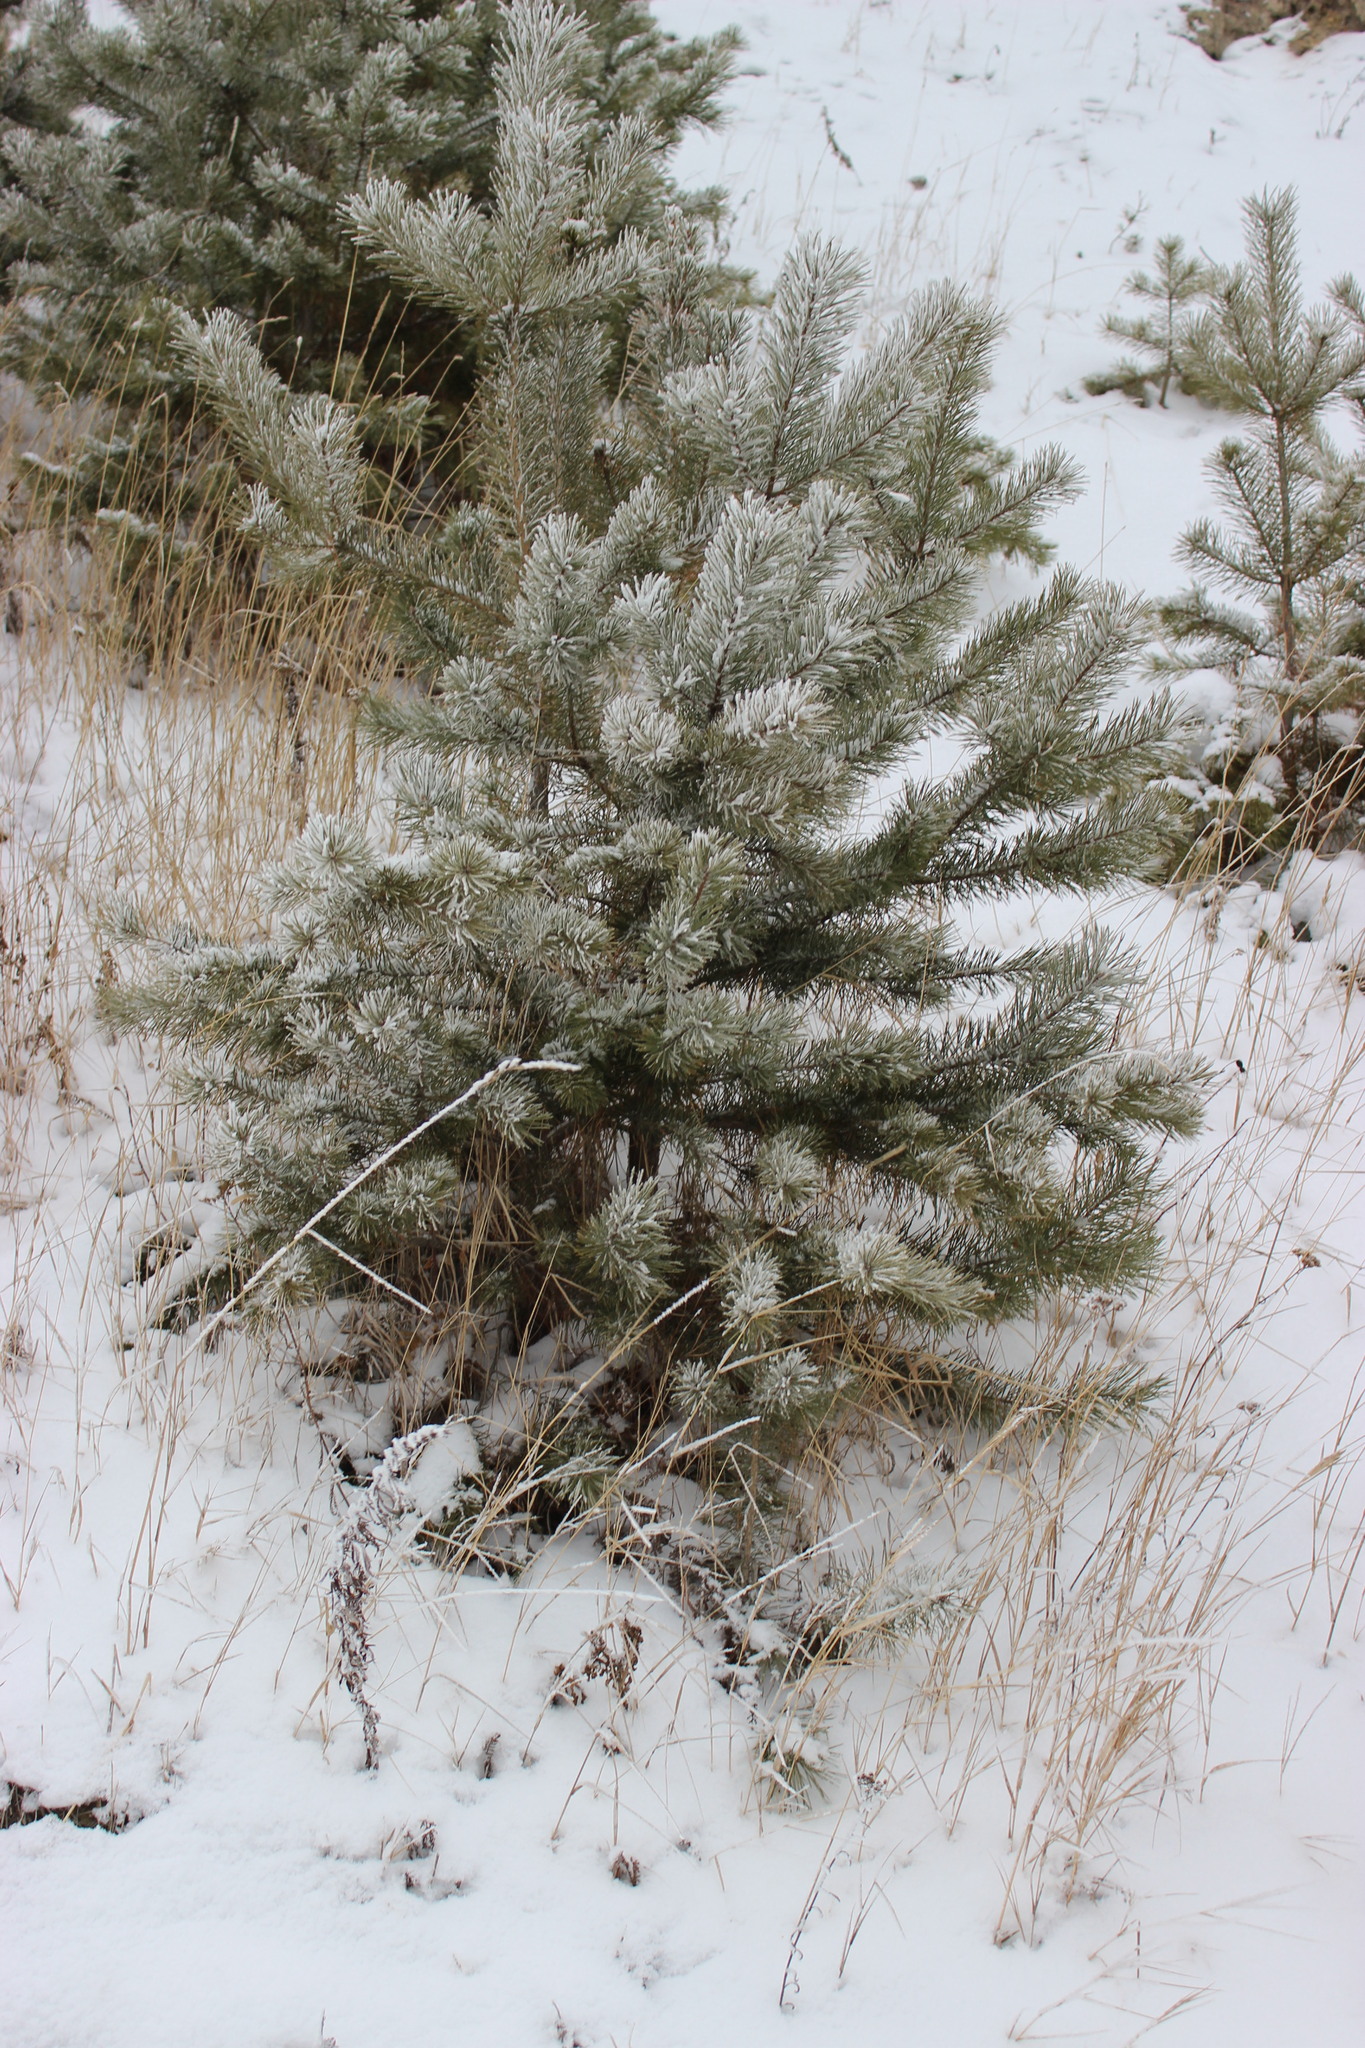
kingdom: Plantae
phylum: Tracheophyta
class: Pinopsida
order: Pinales
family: Pinaceae
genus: Pinus
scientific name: Pinus sylvestris
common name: Scots pine
